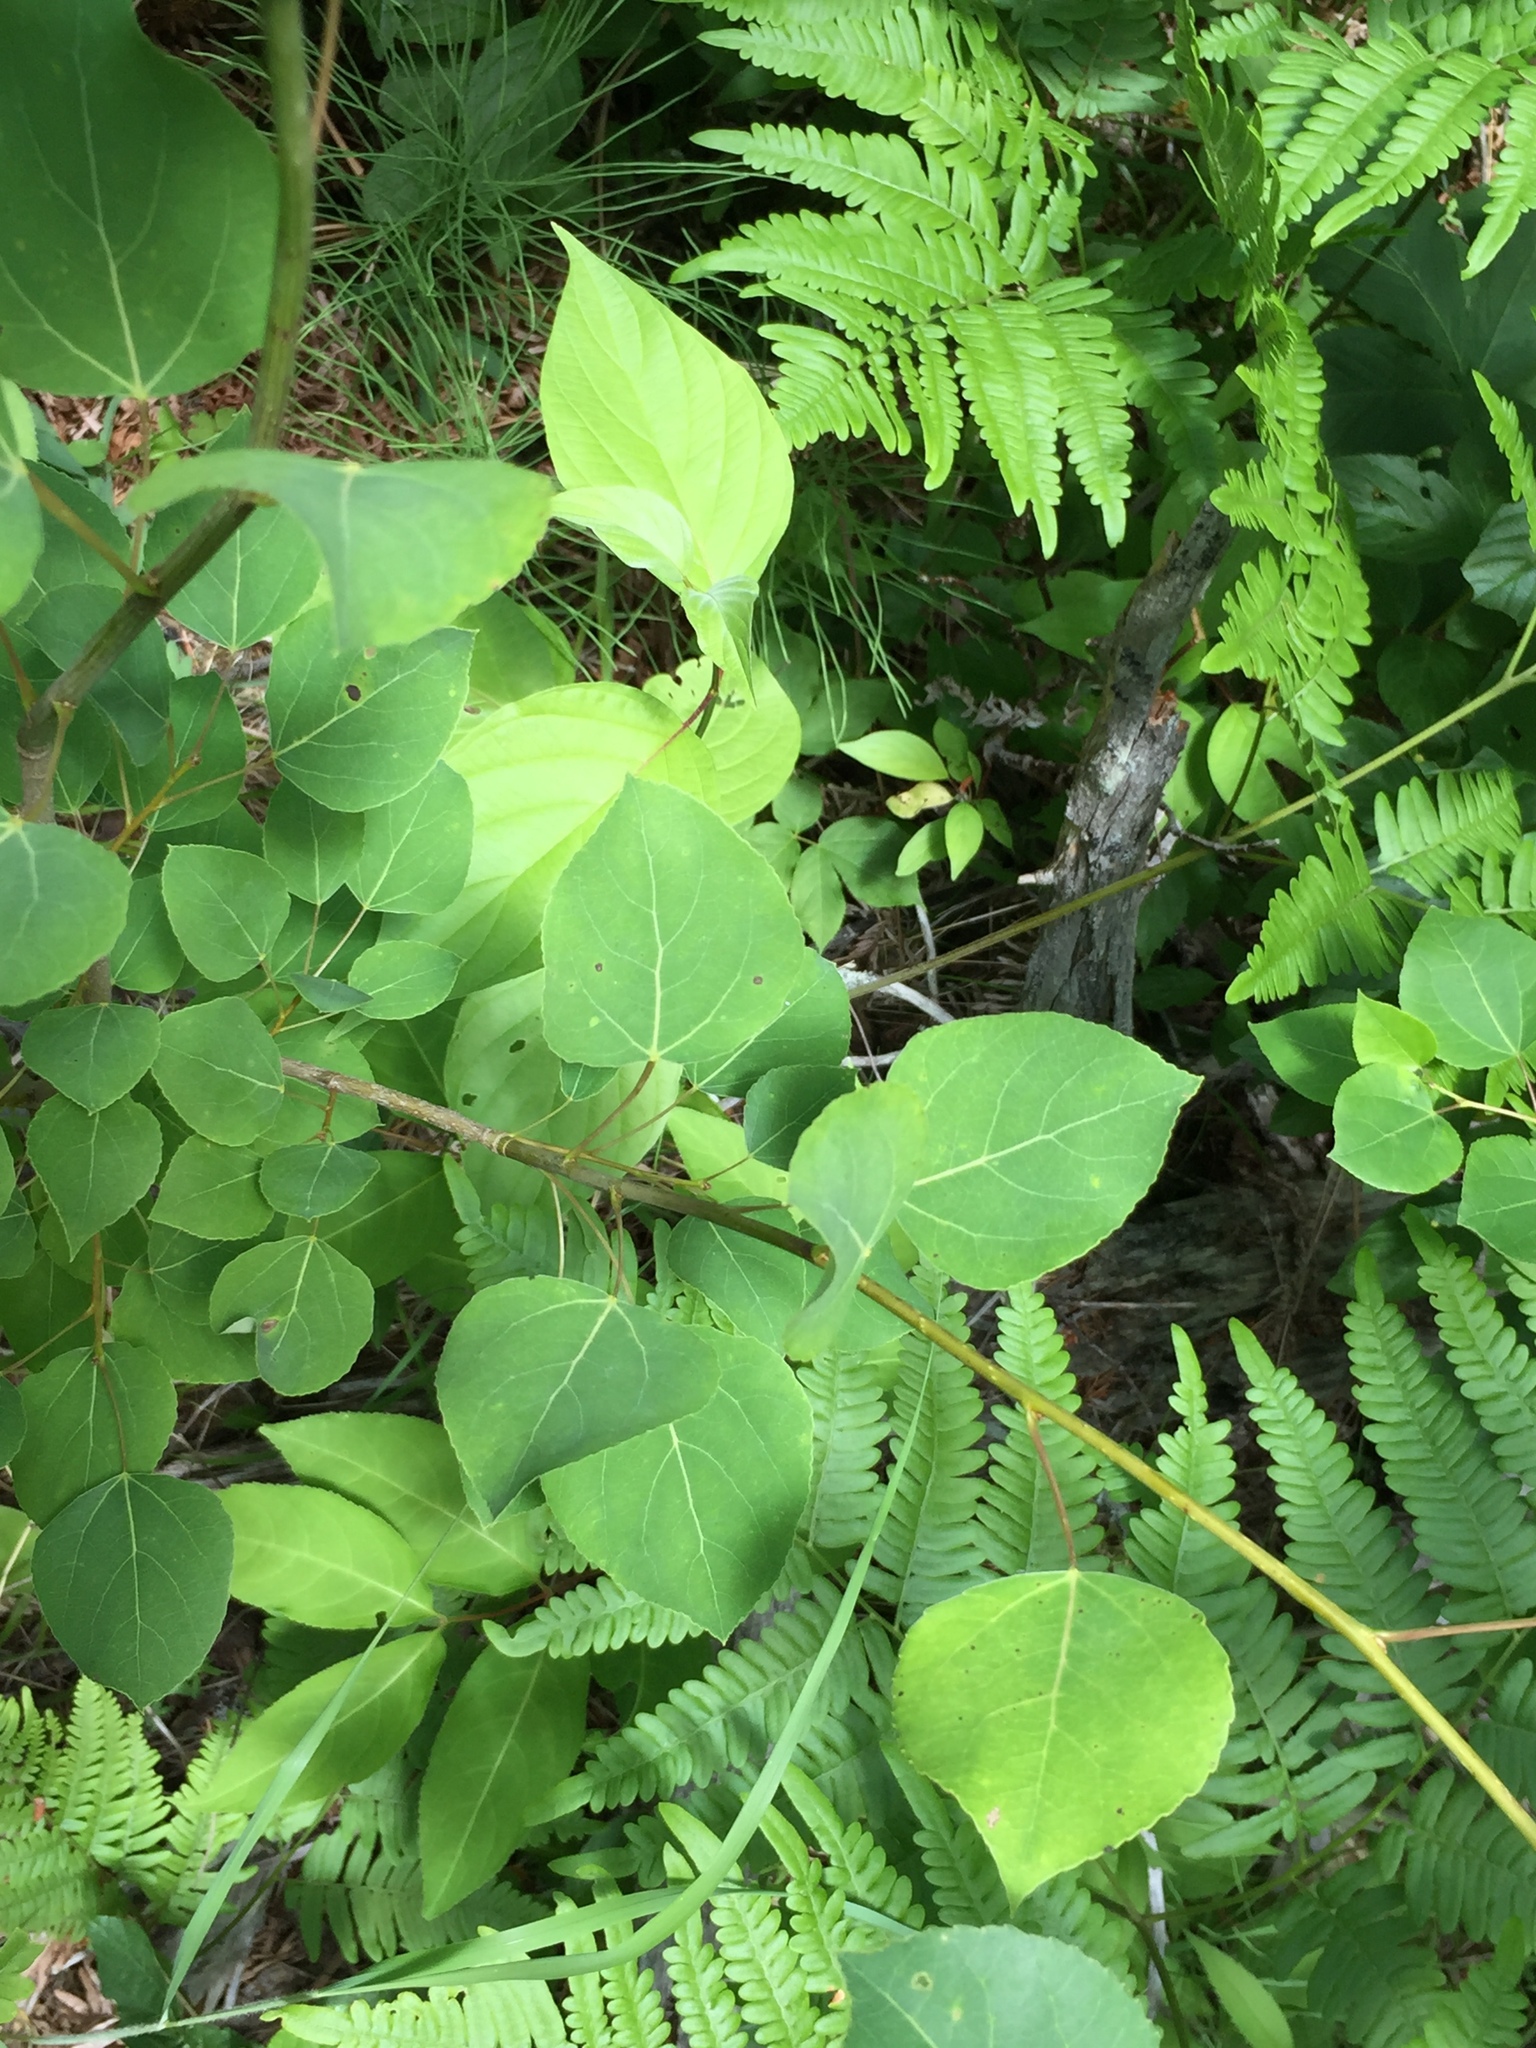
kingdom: Plantae
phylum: Tracheophyta
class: Magnoliopsida
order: Malpighiales
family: Salicaceae
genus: Populus
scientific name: Populus tremuloides
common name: Quaking aspen
